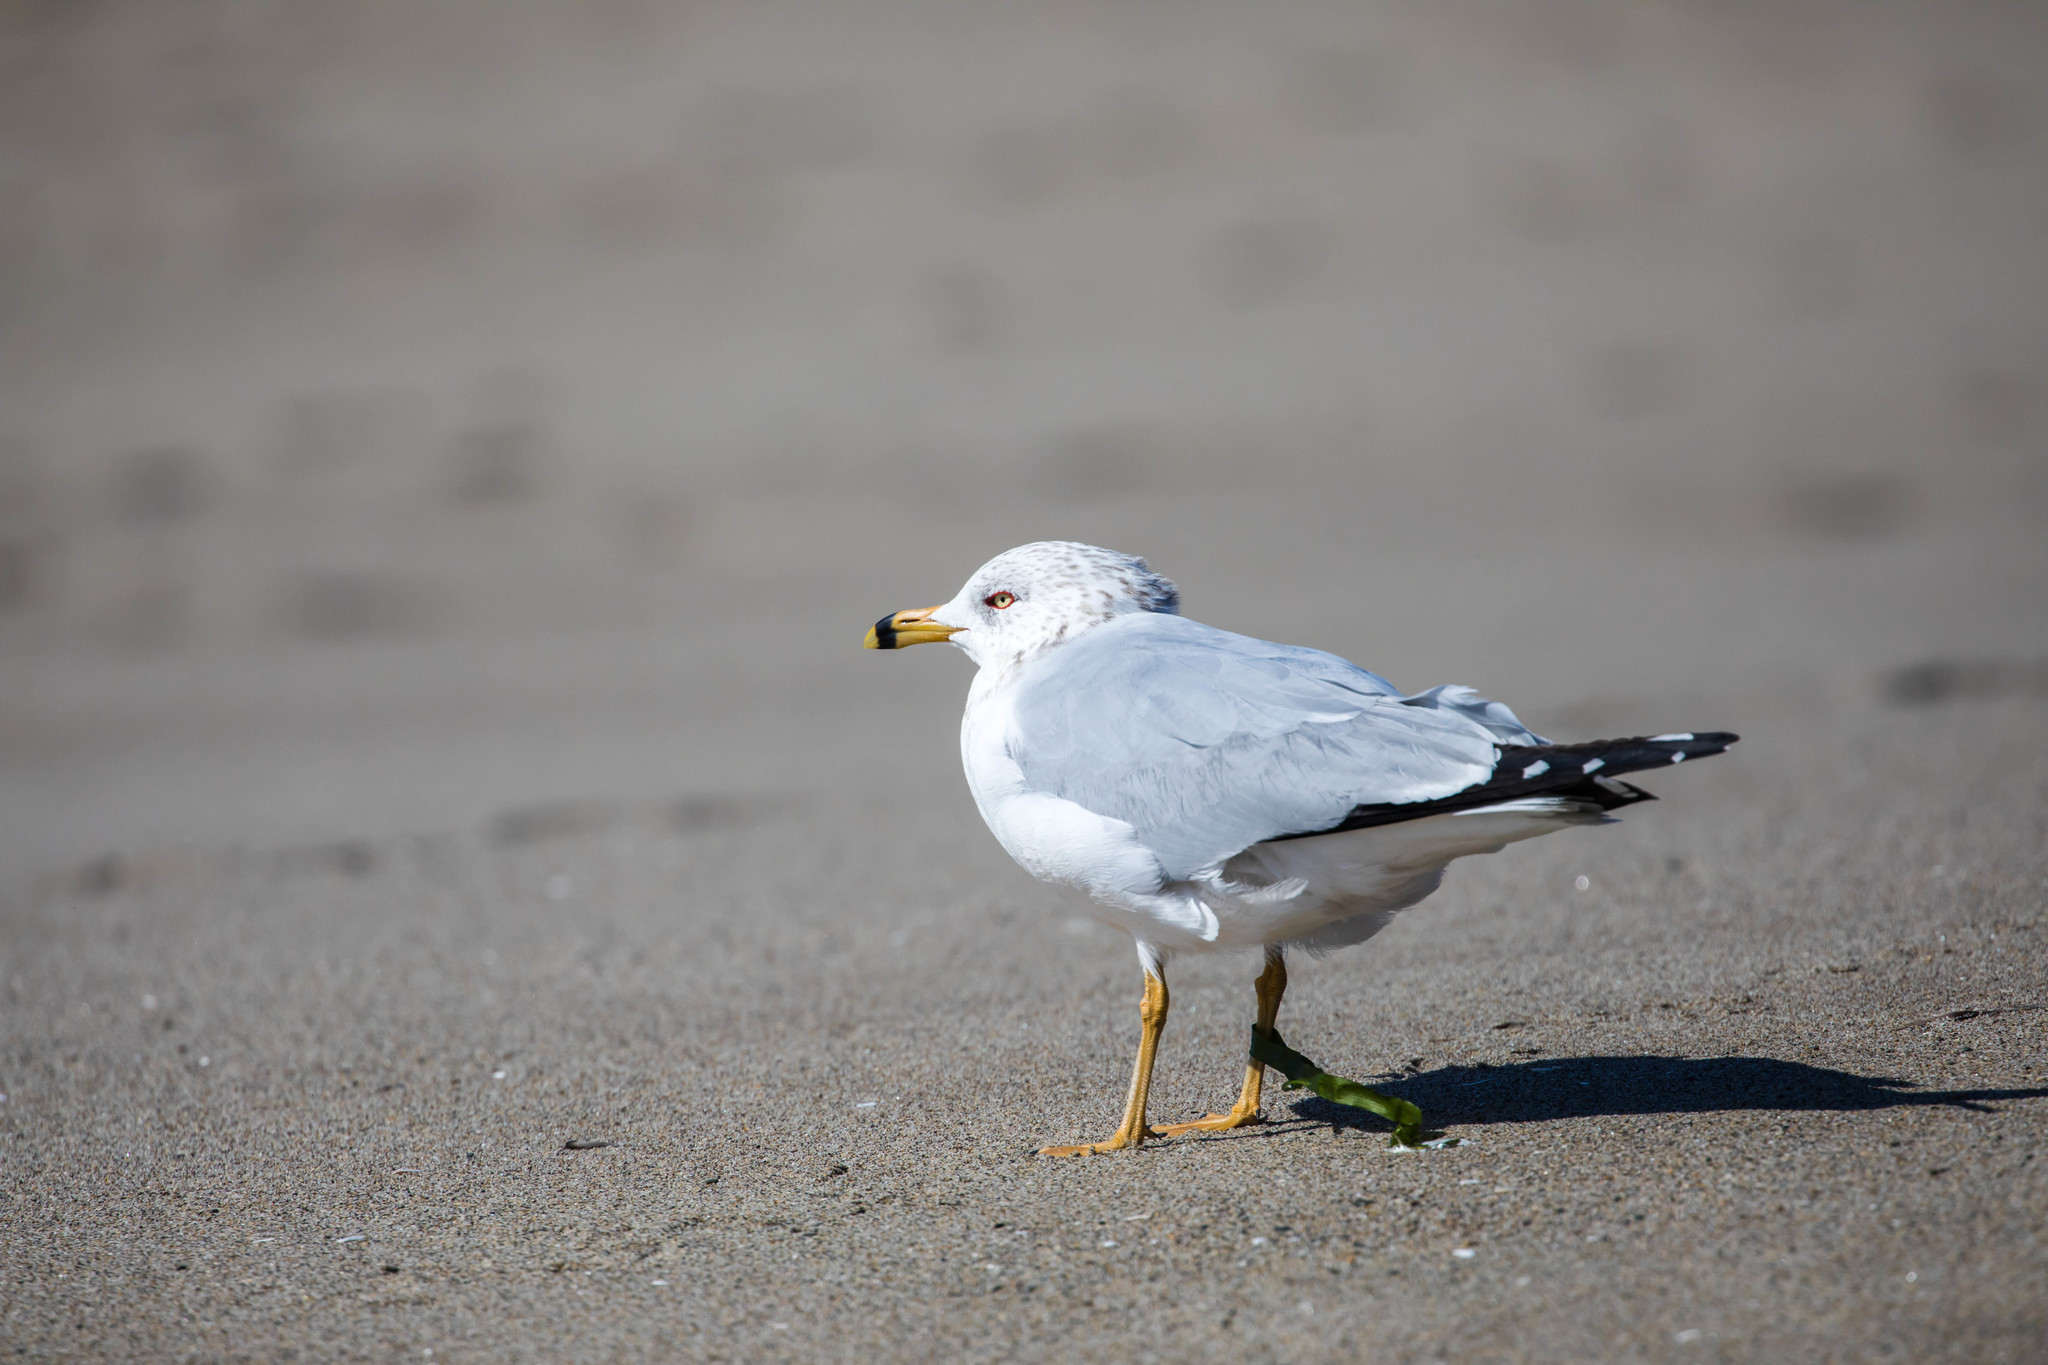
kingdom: Animalia
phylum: Chordata
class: Aves
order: Charadriiformes
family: Laridae
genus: Larus
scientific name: Larus delawarensis
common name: Ring-billed gull
